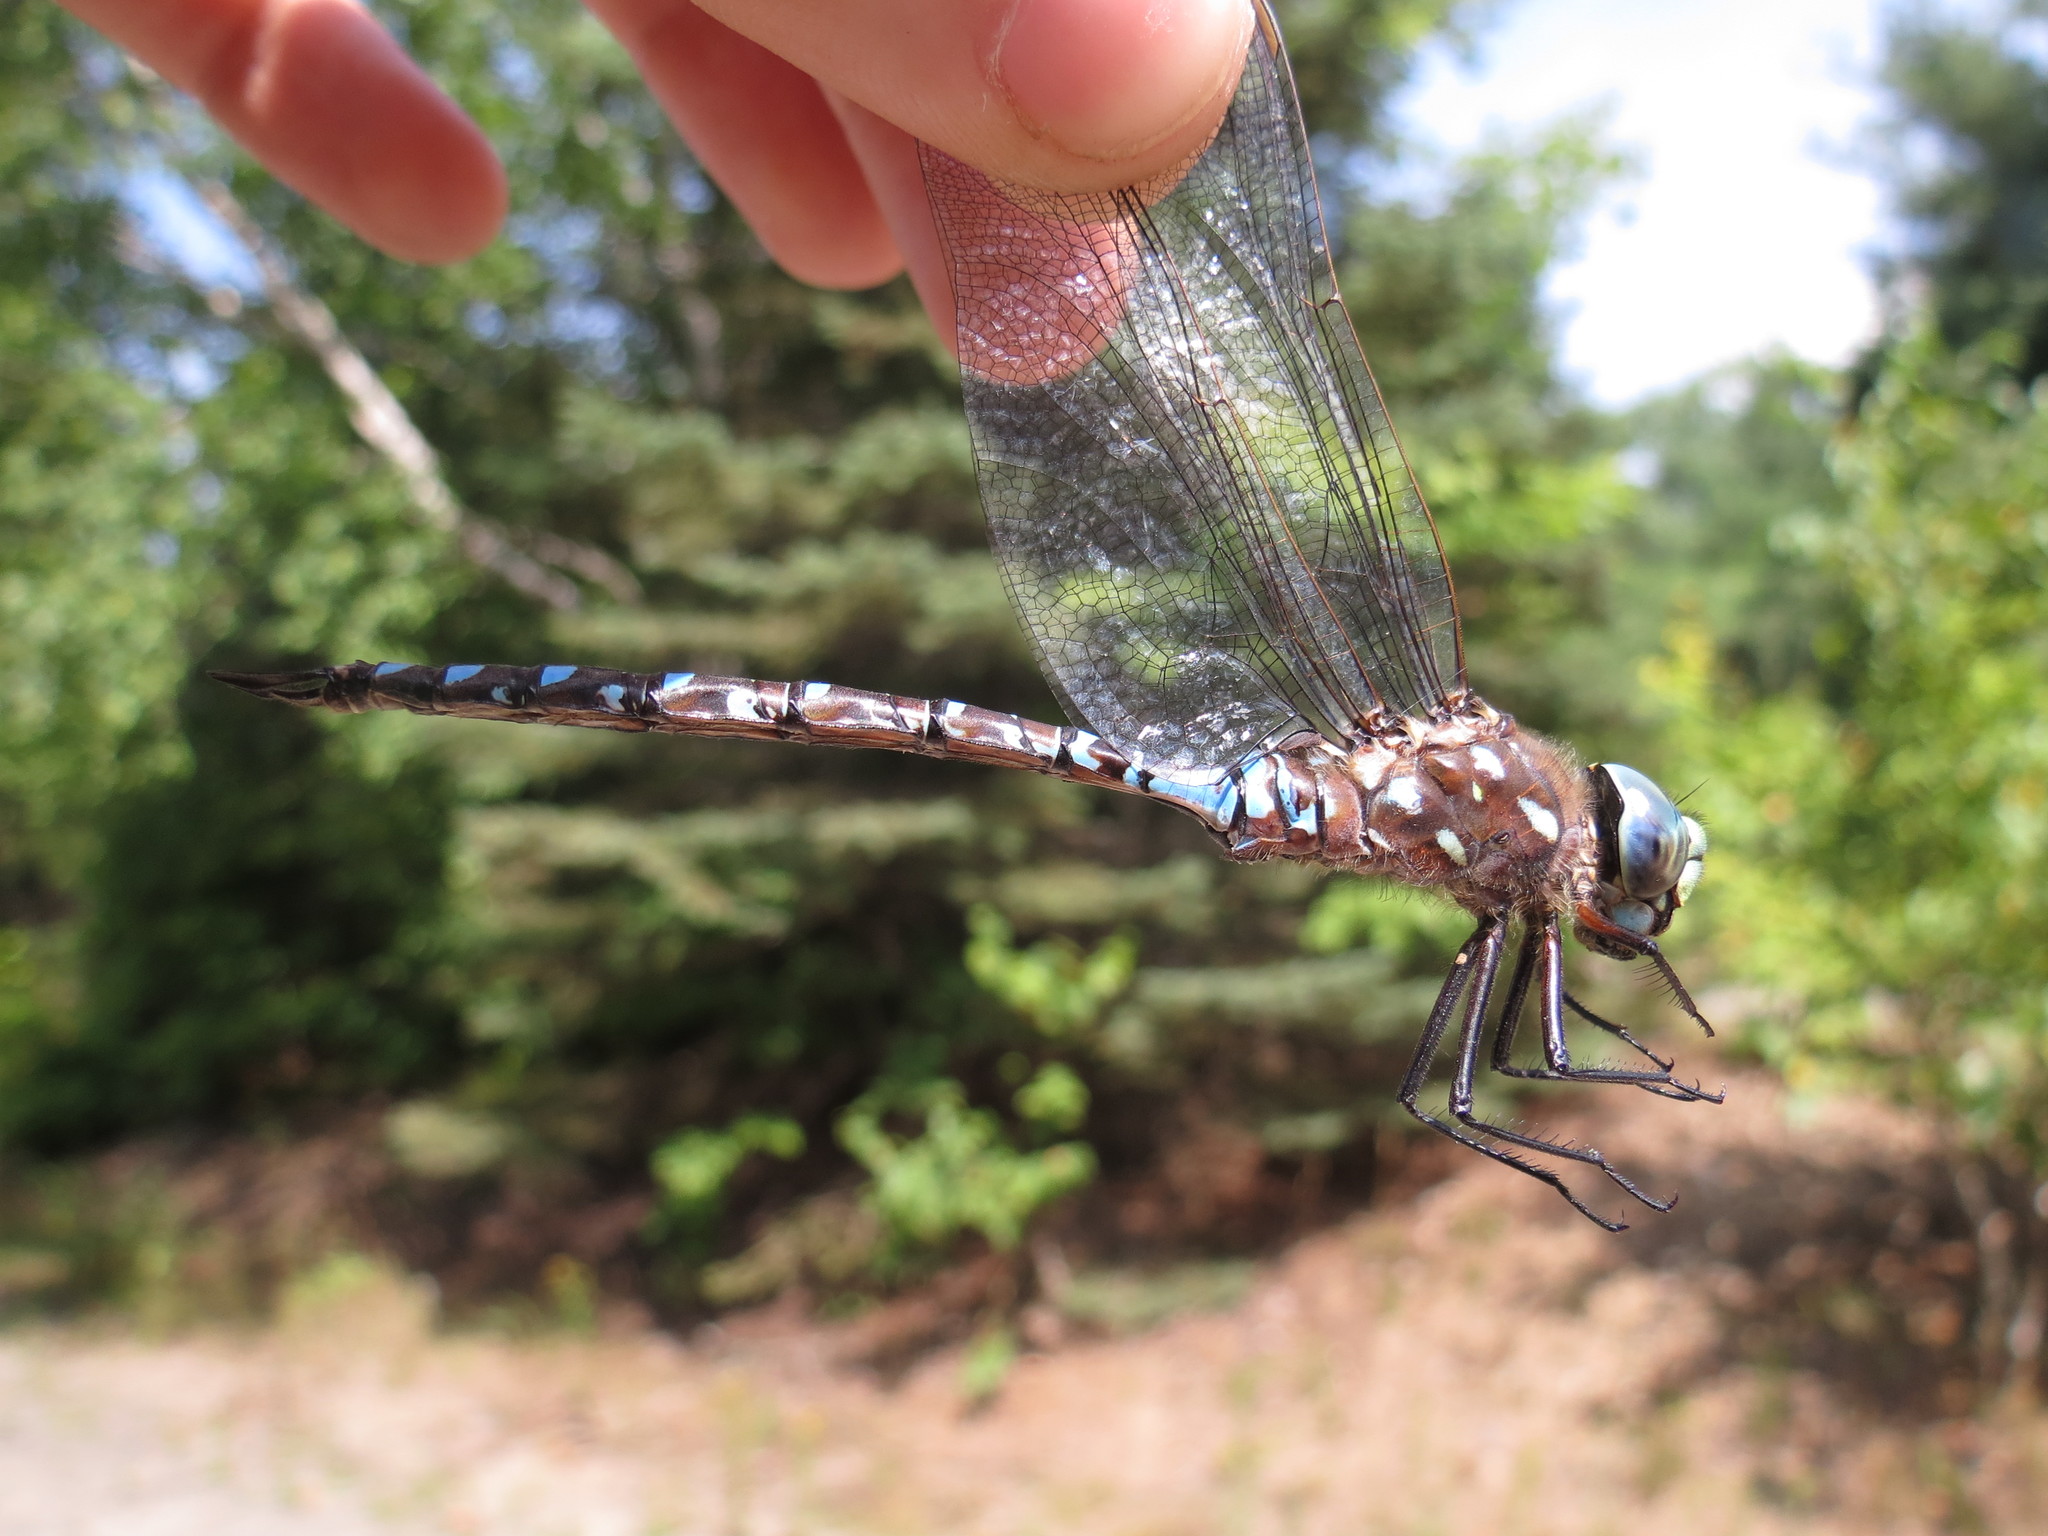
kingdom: Animalia
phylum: Arthropoda
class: Insecta
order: Odonata
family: Aeshnidae
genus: Aeshna
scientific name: Aeshna interrupta
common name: Variable darner
